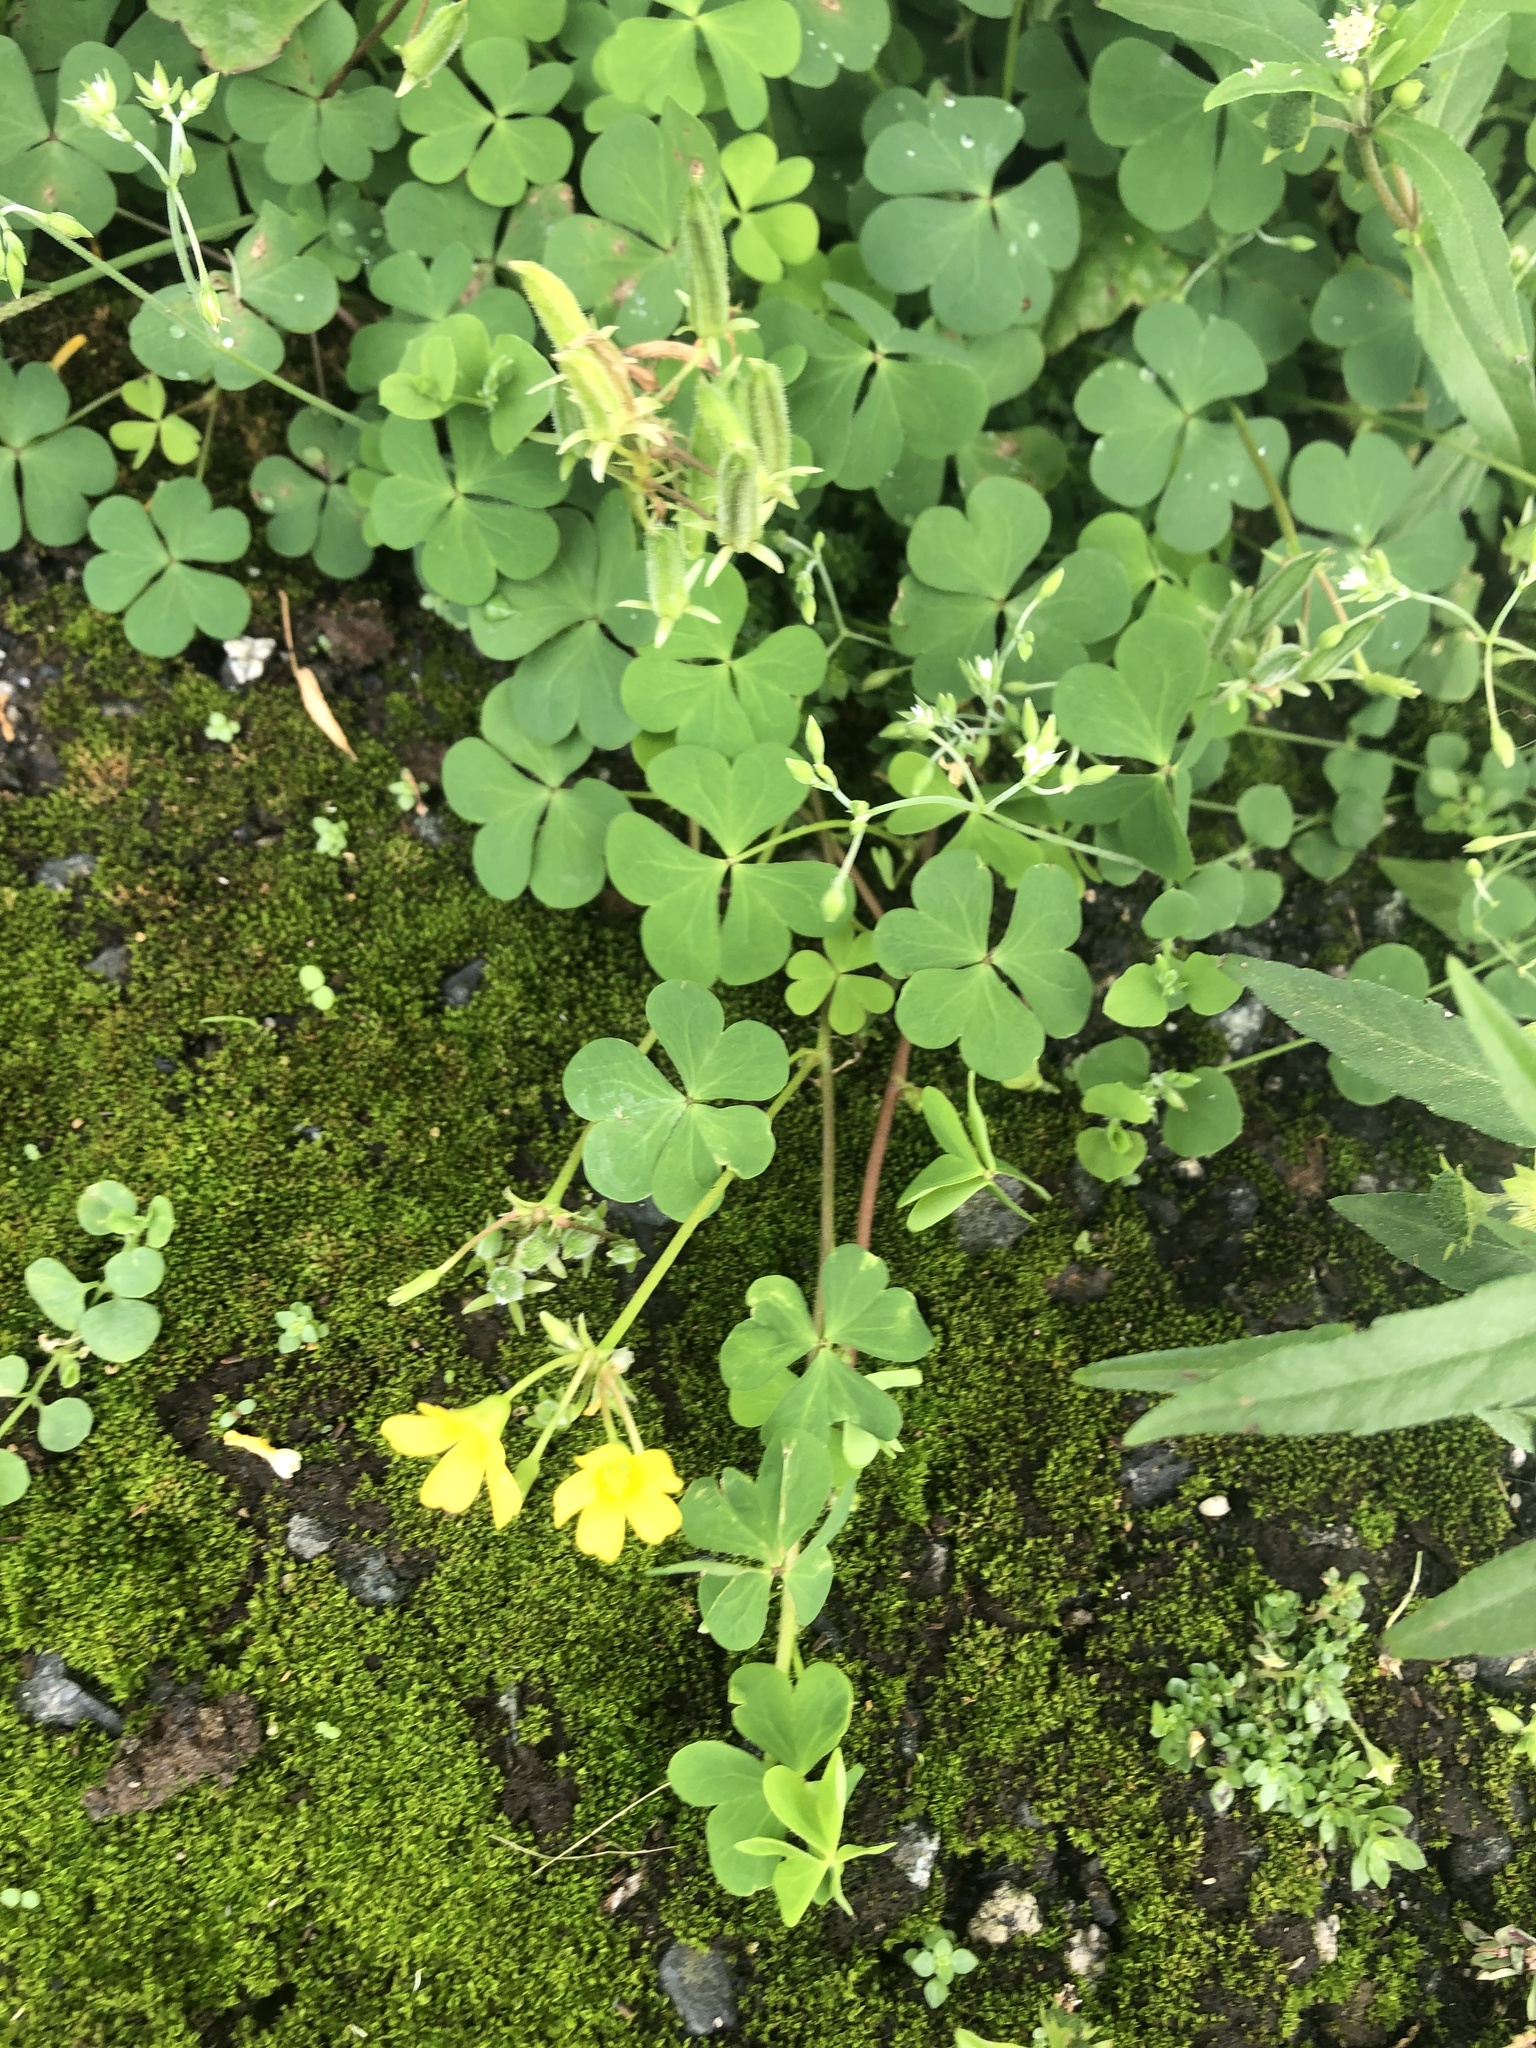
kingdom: Plantae
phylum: Tracheophyta
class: Magnoliopsida
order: Oxalidales
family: Oxalidaceae
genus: Oxalis
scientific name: Oxalis corniculata
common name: Procumbent yellow-sorrel
